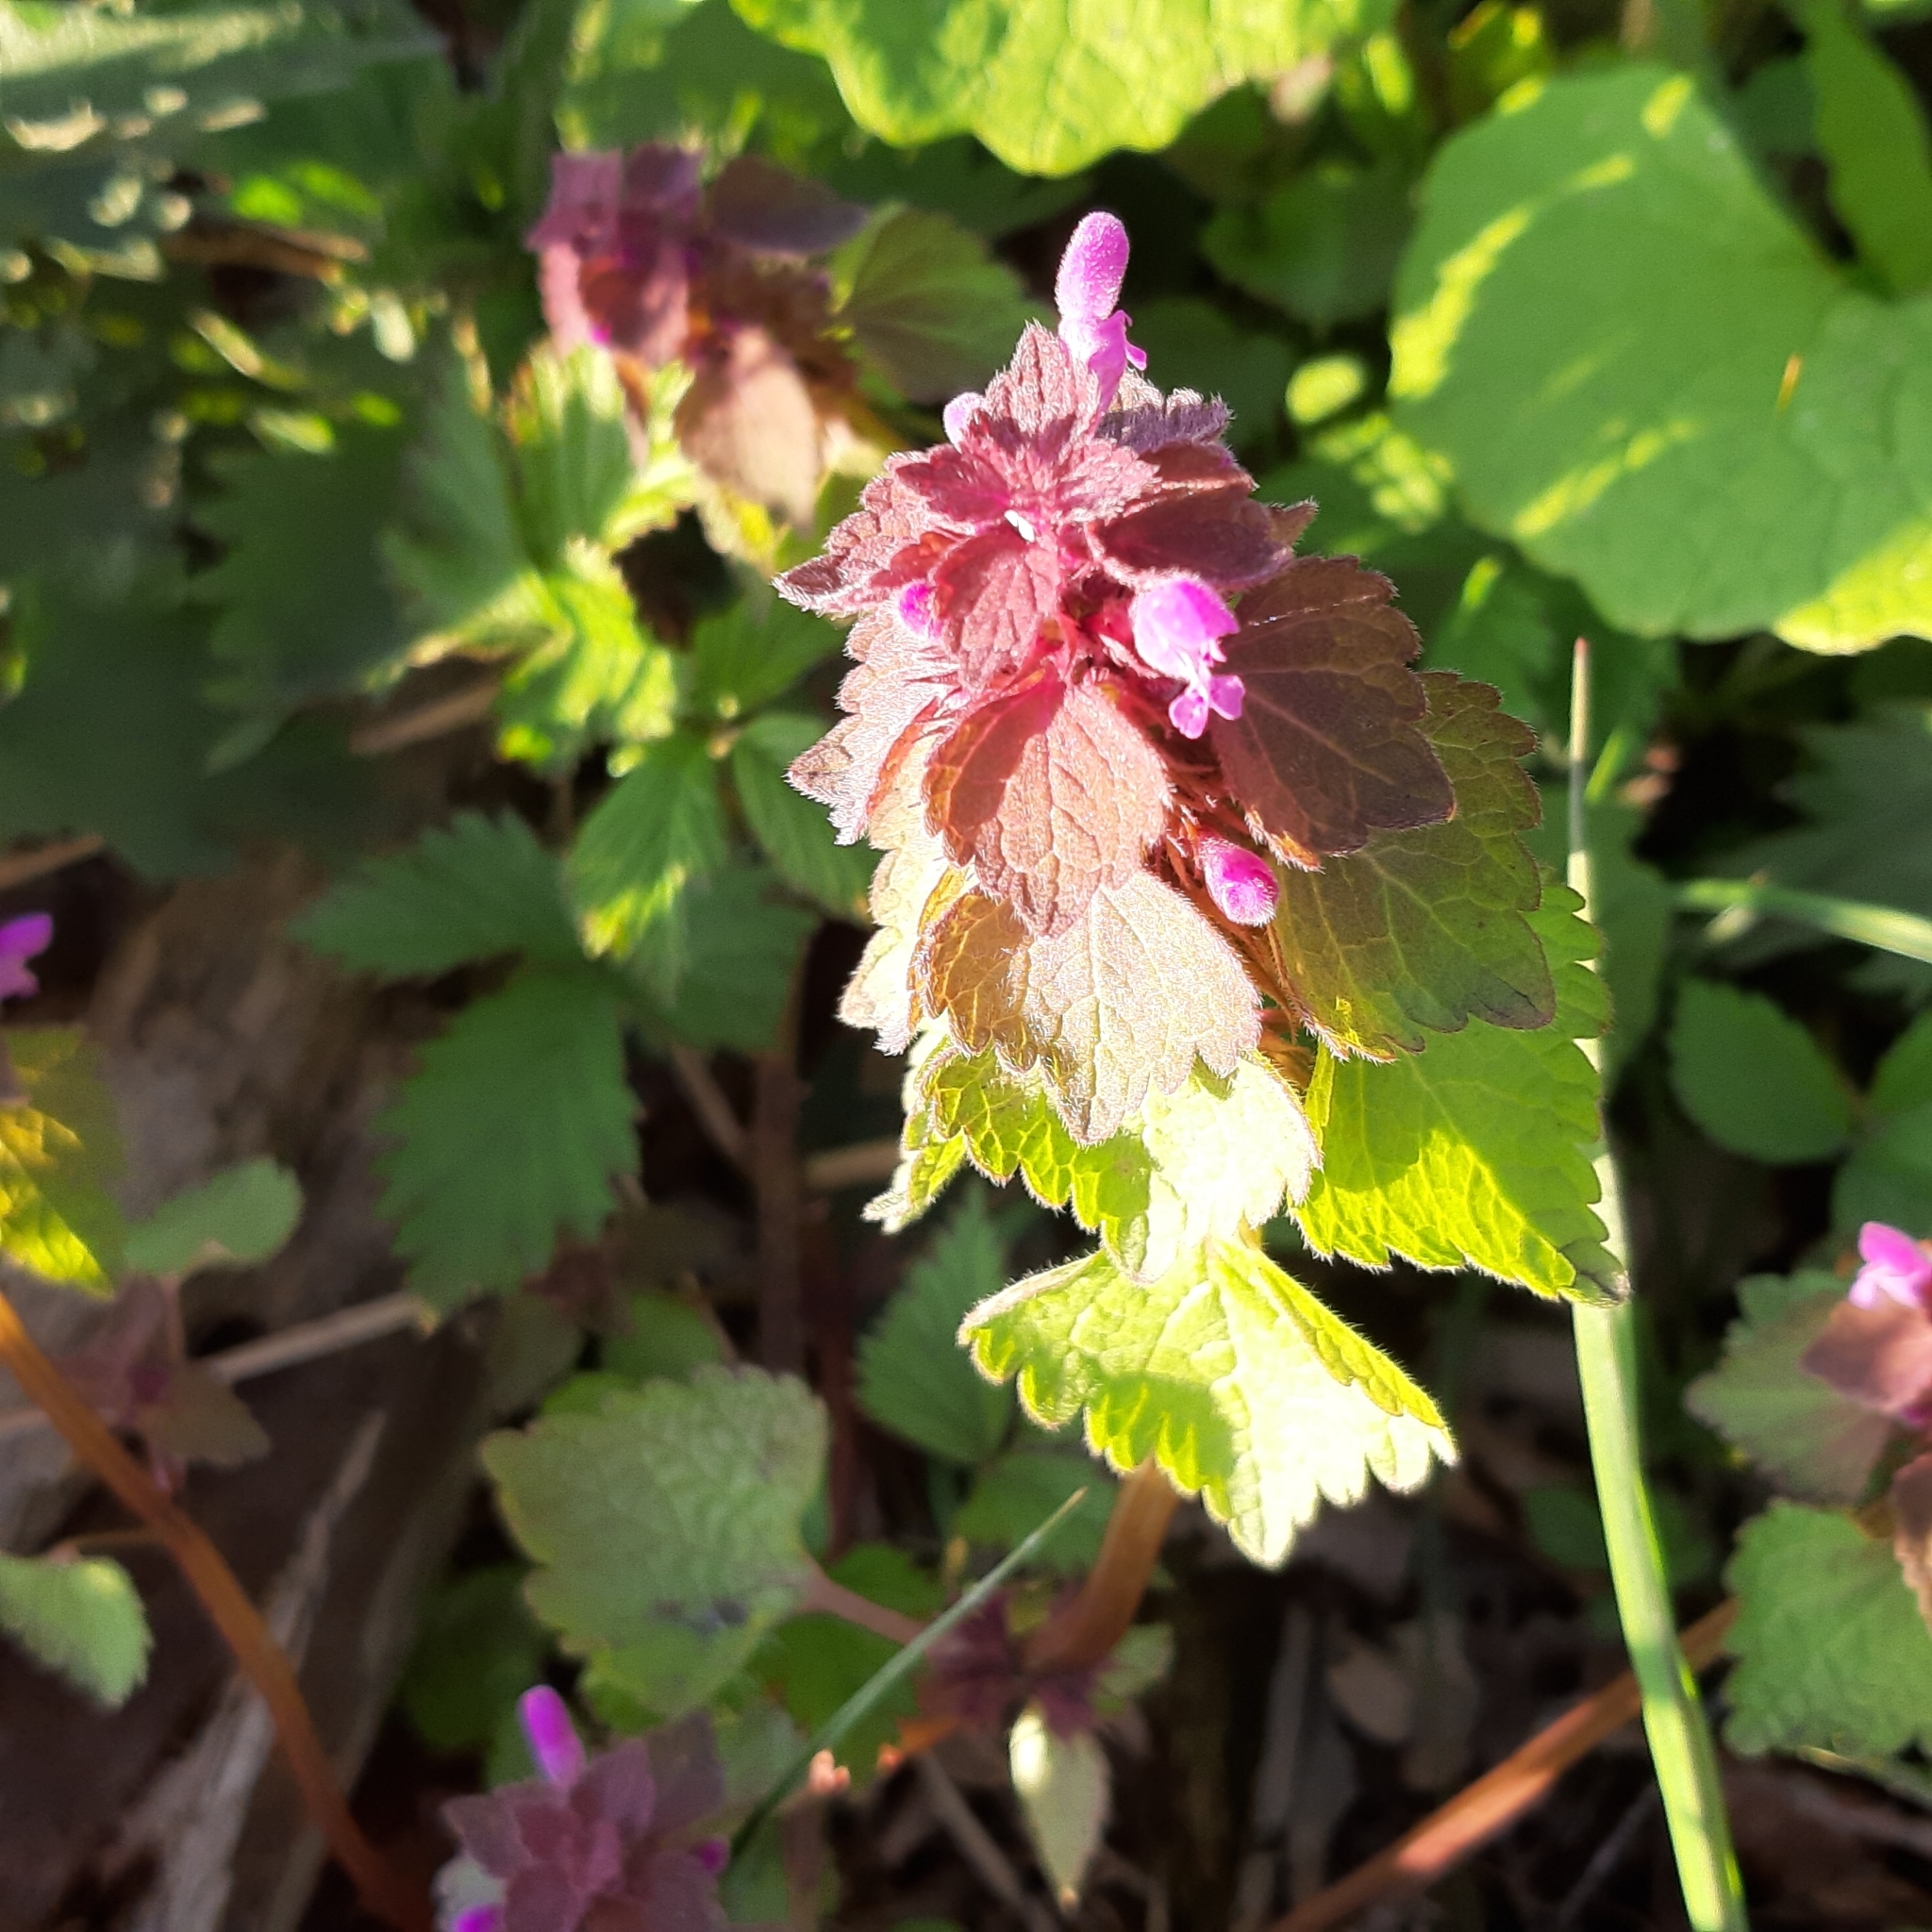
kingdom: Plantae
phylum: Tracheophyta
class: Magnoliopsida
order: Lamiales
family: Lamiaceae
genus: Lamium
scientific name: Lamium purpureum
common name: Red dead-nettle
